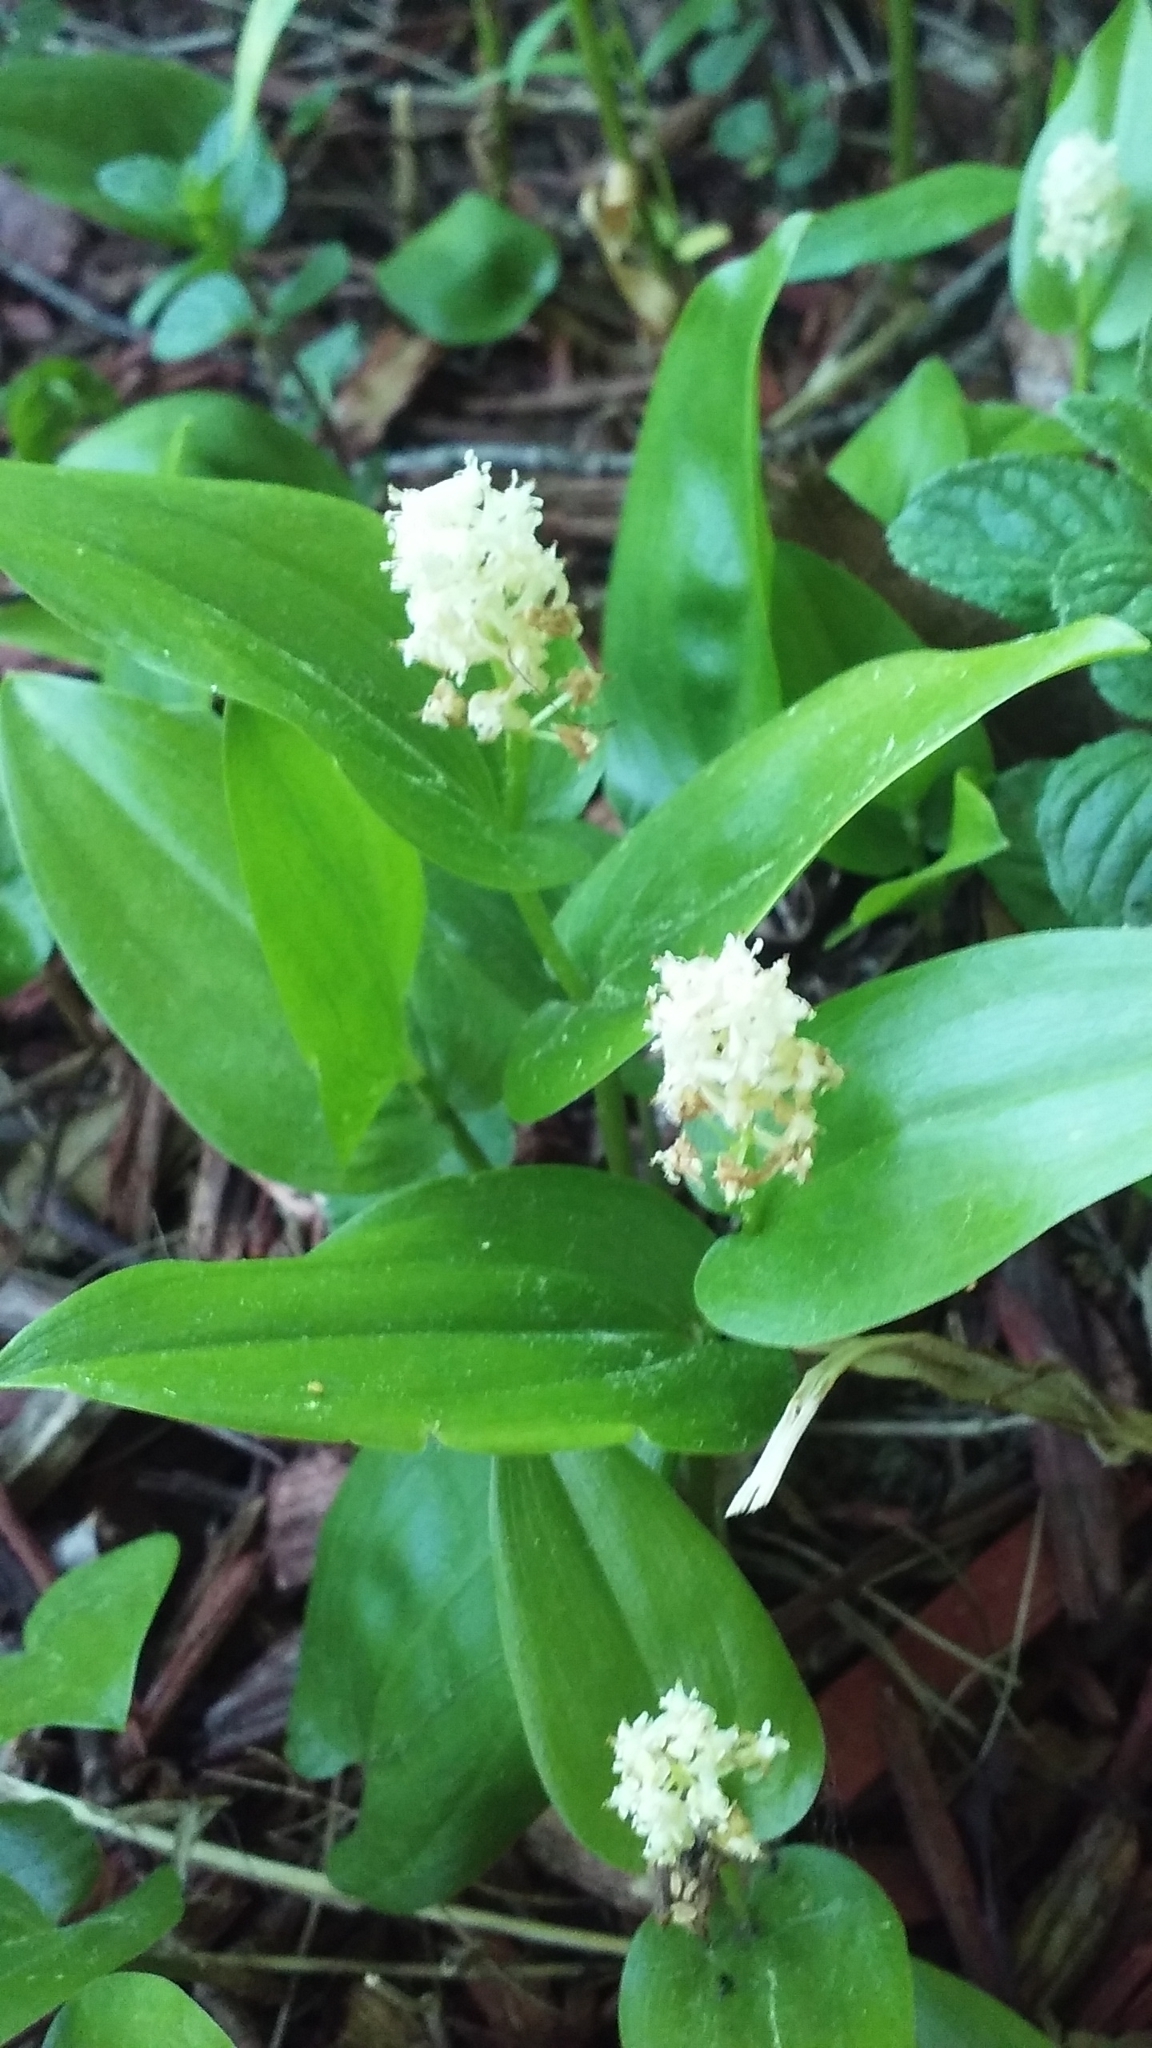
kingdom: Plantae
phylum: Tracheophyta
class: Liliopsida
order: Asparagales
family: Asparagaceae
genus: Maianthemum
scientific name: Maianthemum canadense
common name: False lily-of-the-valley
